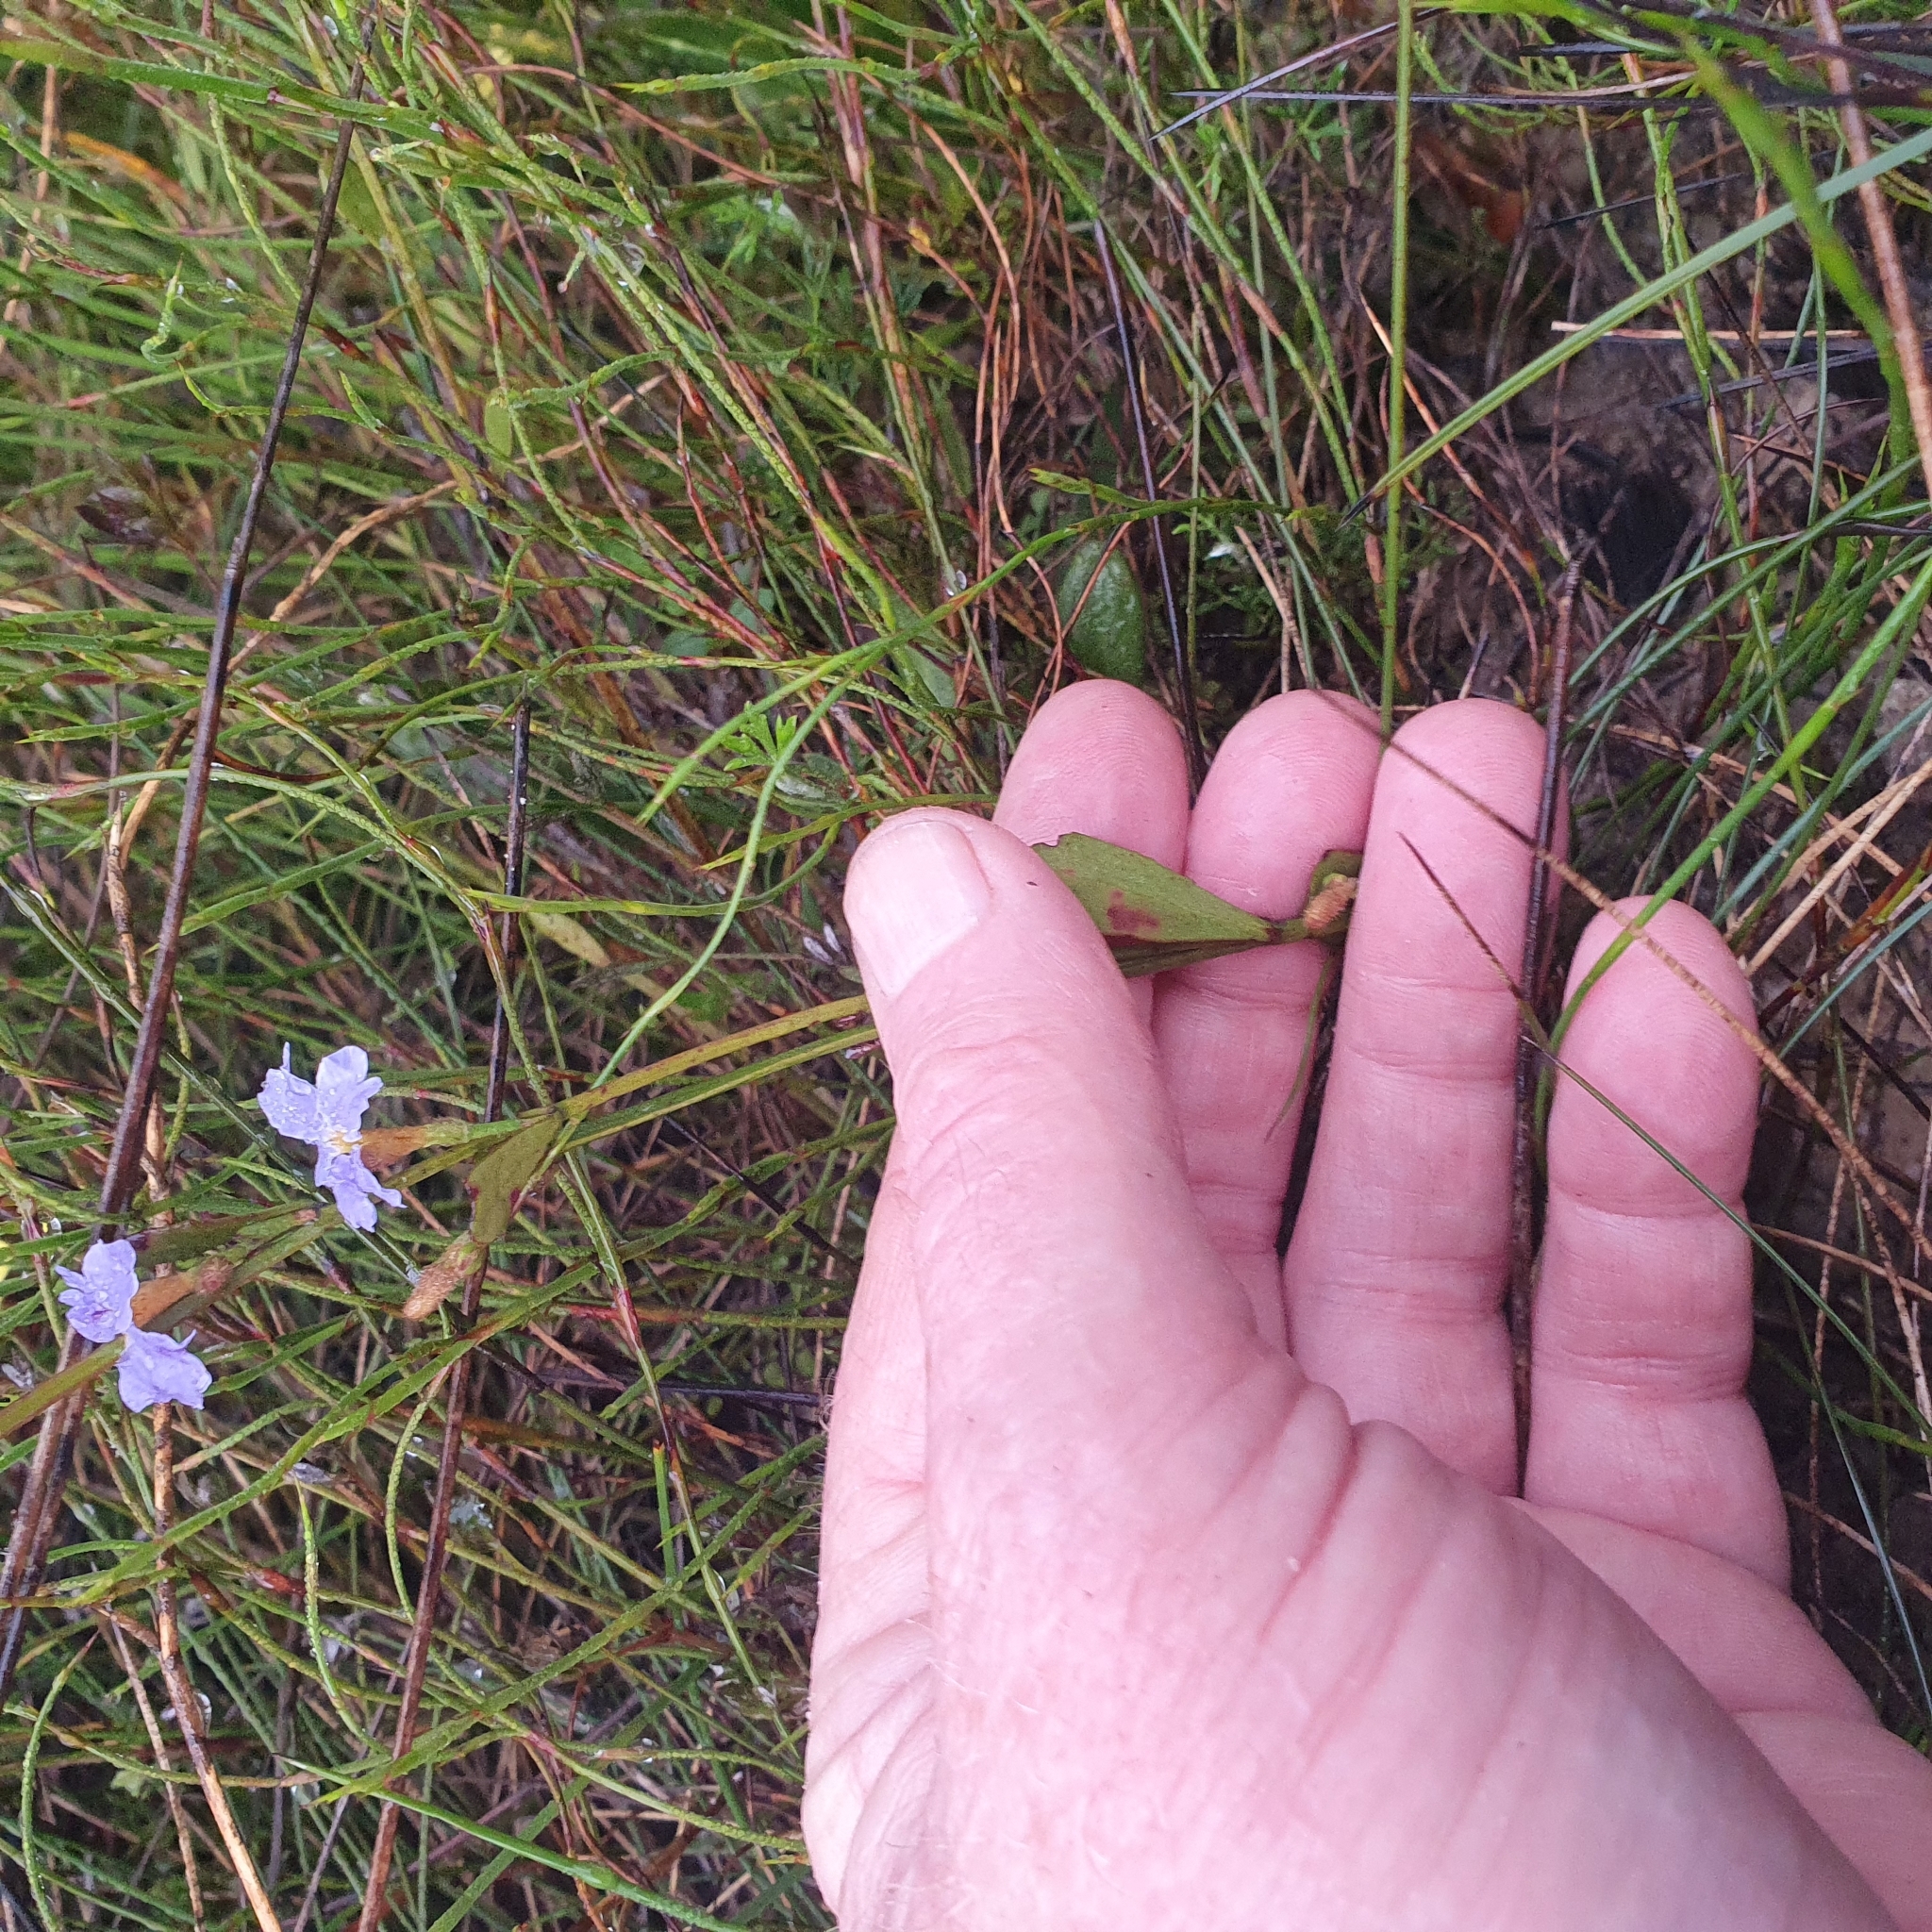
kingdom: Plantae
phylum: Tracheophyta
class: Magnoliopsida
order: Asterales
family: Goodeniaceae
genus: Dampiera
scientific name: Dampiera stricta
